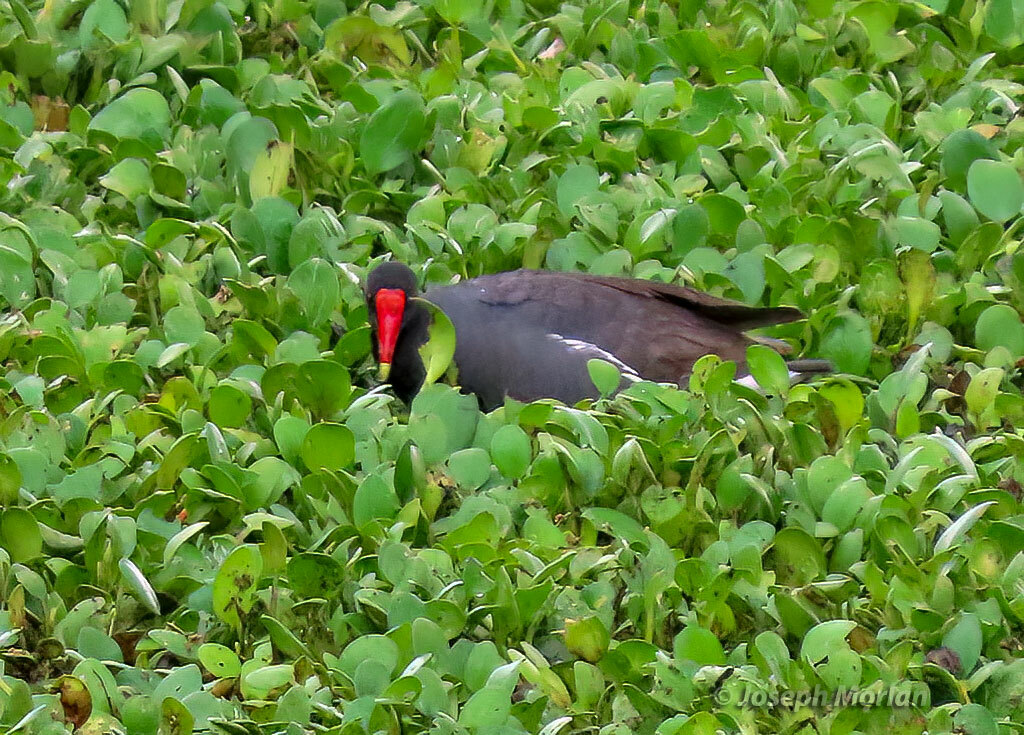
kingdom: Animalia
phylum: Chordata
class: Aves
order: Gruiformes
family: Rallidae
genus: Gallinula
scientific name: Gallinula chloropus
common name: Common moorhen
